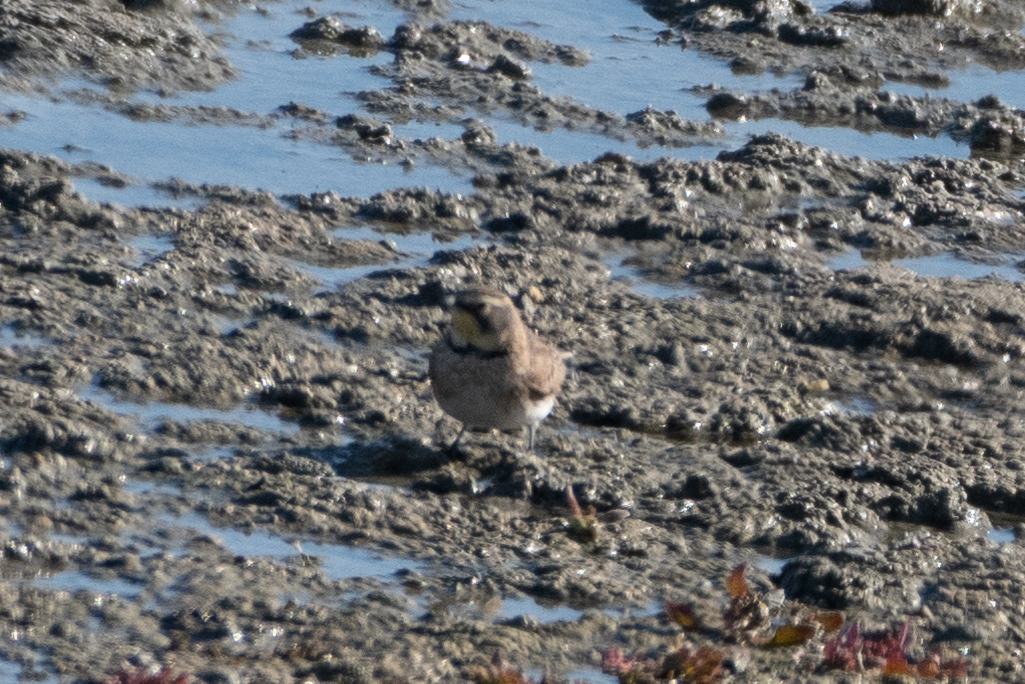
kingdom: Animalia
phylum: Chordata
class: Aves
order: Passeriformes
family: Alaudidae
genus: Eremophila
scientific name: Eremophila alpestris
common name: Horned lark
